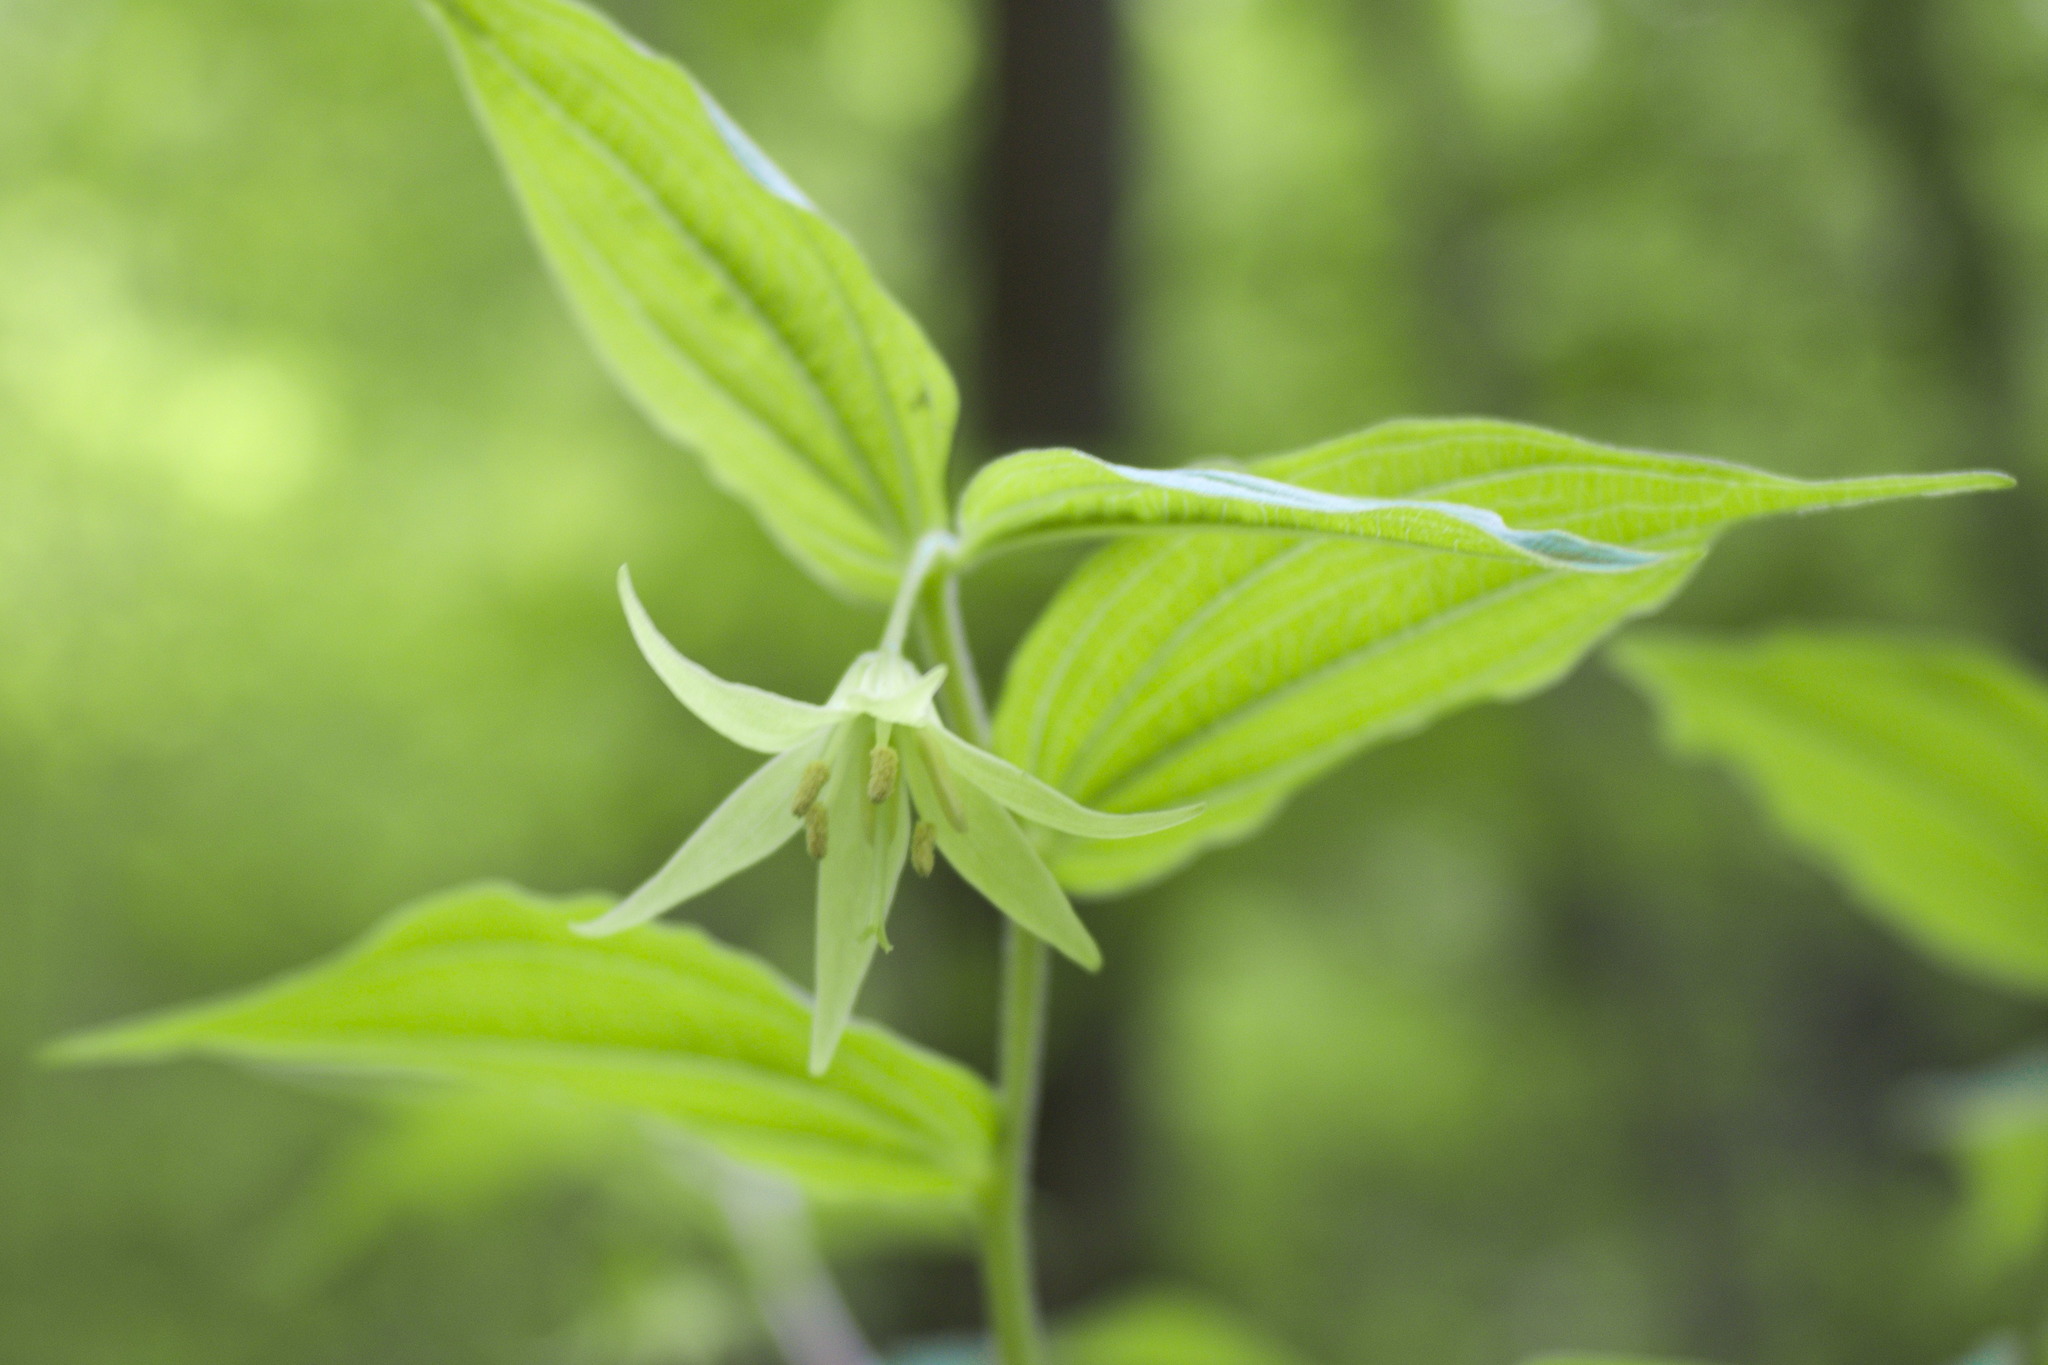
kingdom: Plantae
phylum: Tracheophyta
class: Liliopsida
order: Liliales
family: Liliaceae
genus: Prosartes
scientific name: Prosartes lanuginosa
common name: Hairy mandarin
